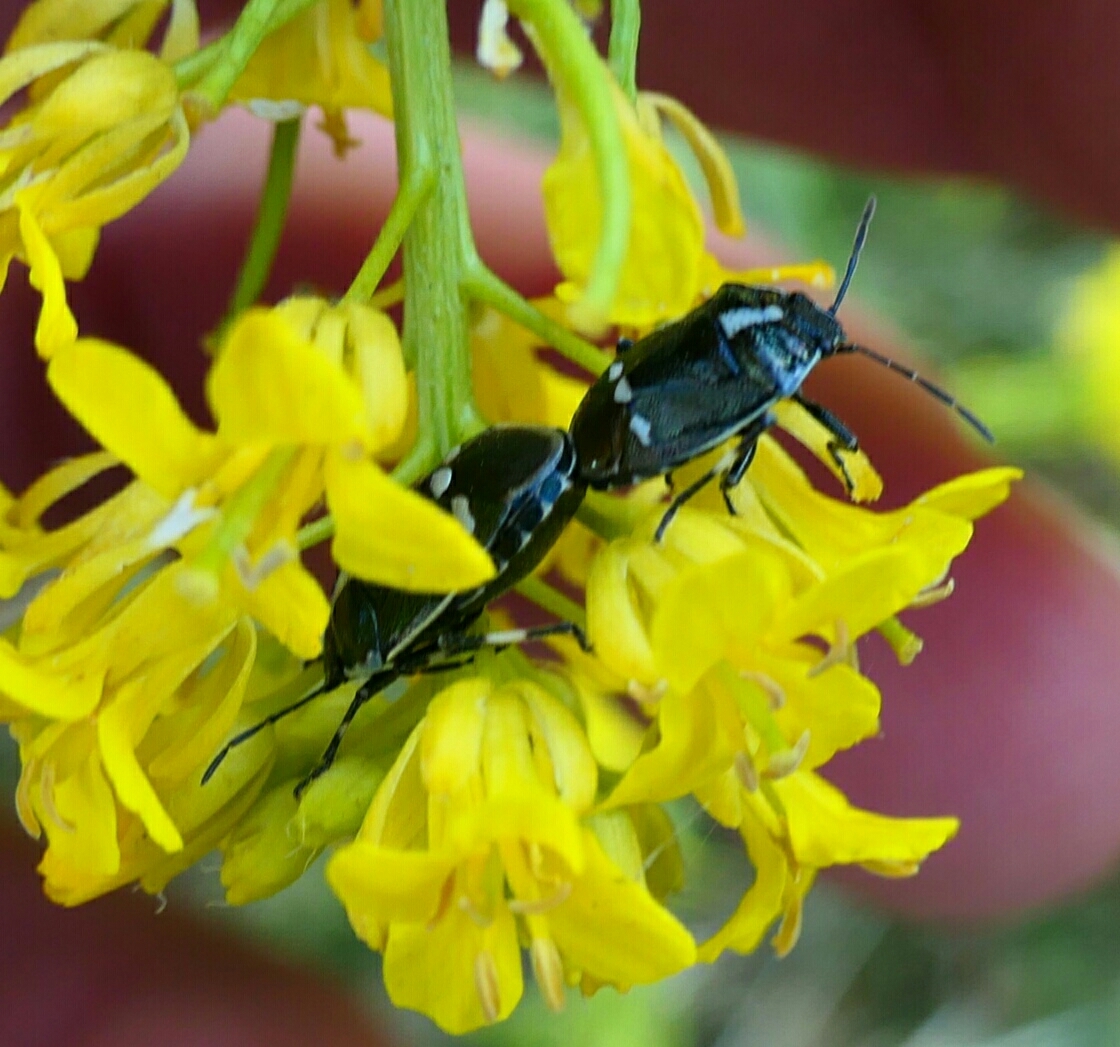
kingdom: Animalia
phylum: Arthropoda
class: Insecta
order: Hemiptera
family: Pentatomidae
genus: Eurydema
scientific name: Eurydema oleracea
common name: Cabbage bug
